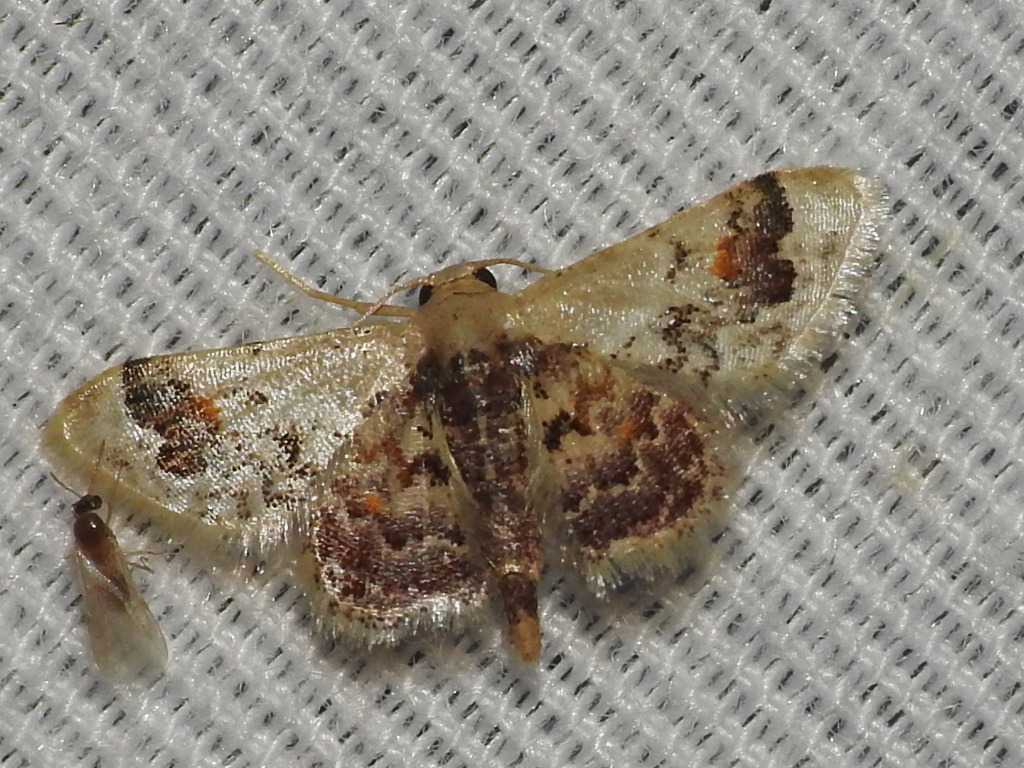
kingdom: Animalia
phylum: Arthropoda
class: Insecta
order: Lepidoptera
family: Geometridae
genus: Idaea
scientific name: Idaea asceta
